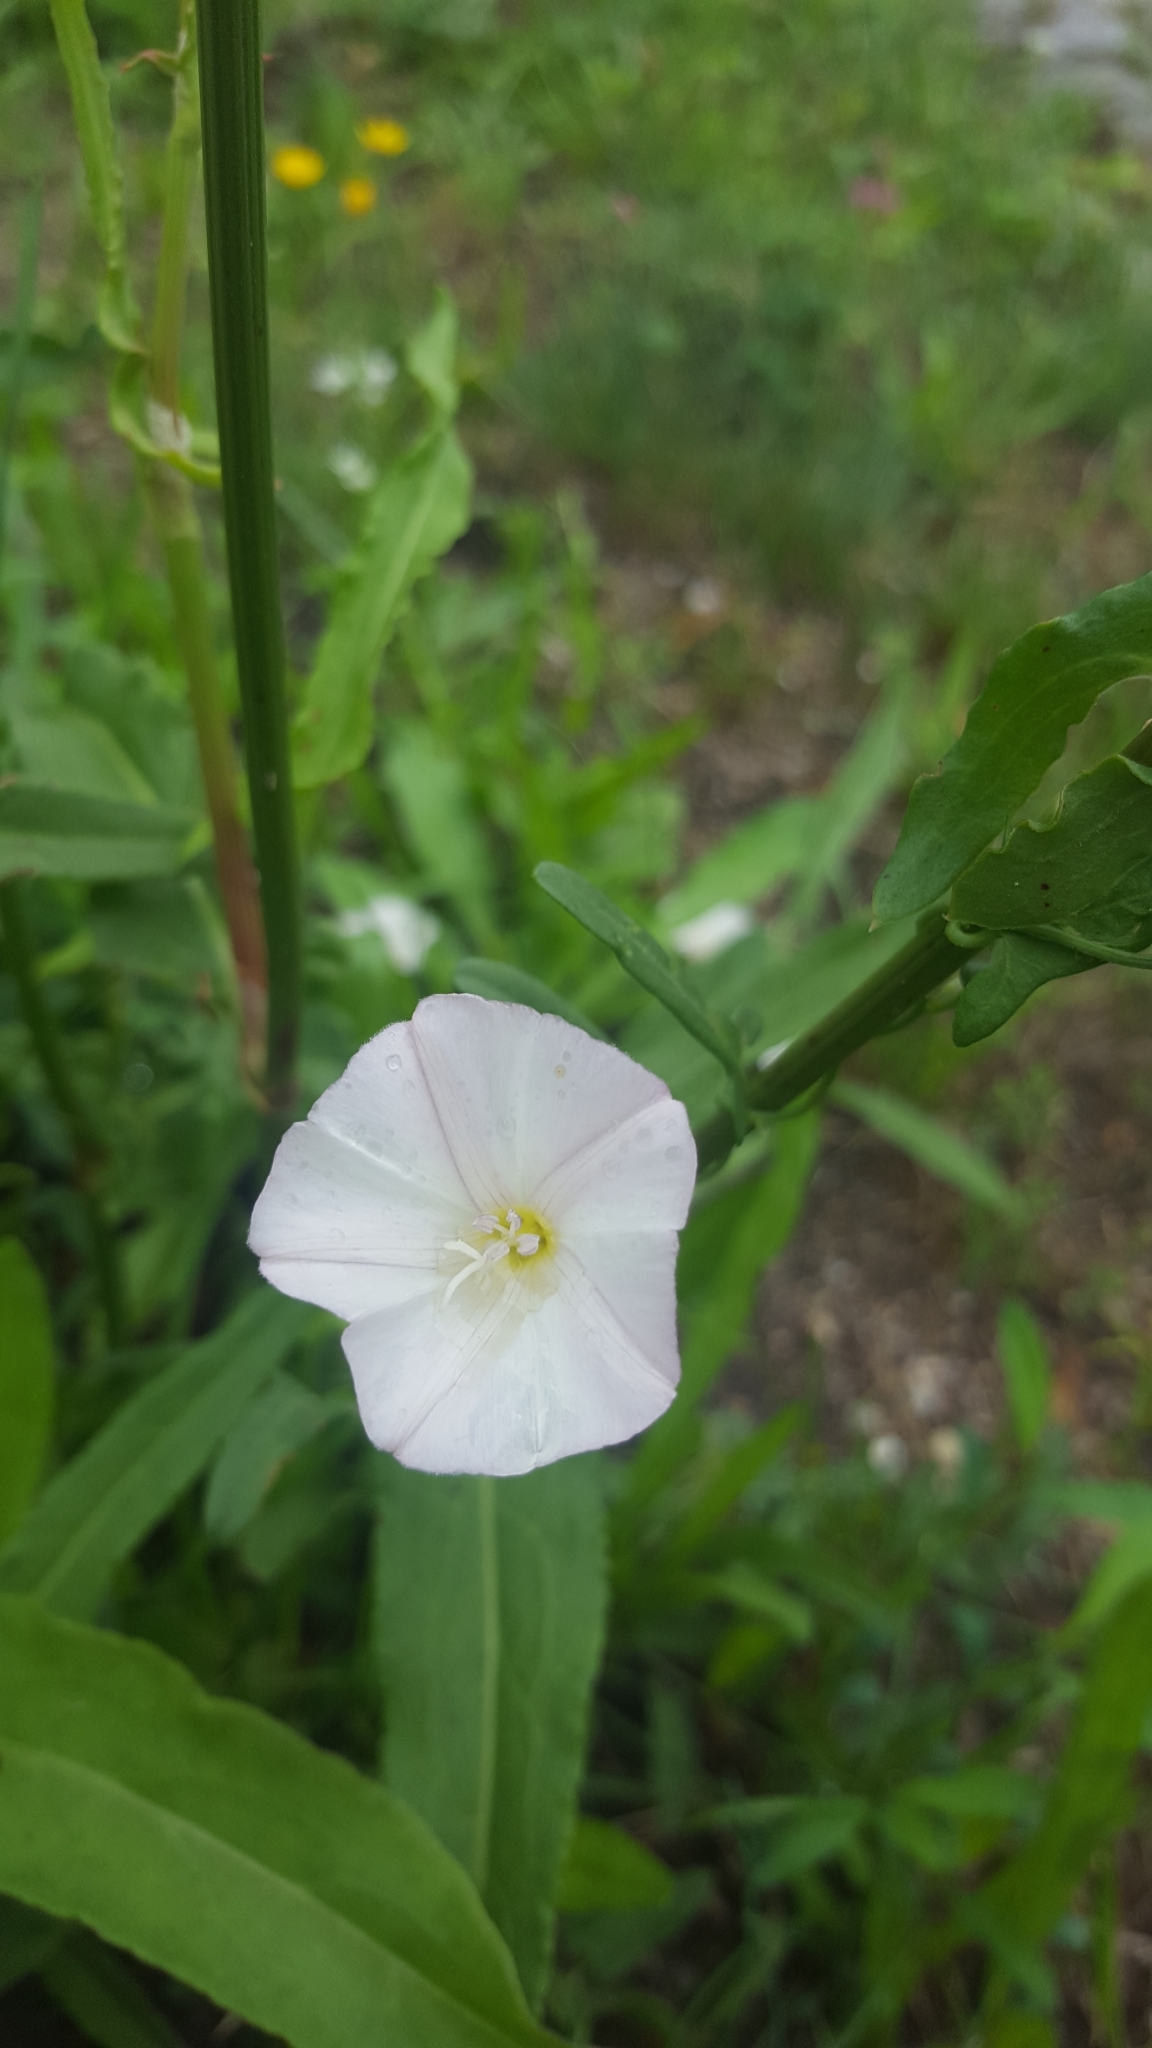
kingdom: Plantae
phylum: Tracheophyta
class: Magnoliopsida
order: Solanales
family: Convolvulaceae
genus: Convolvulus
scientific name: Convolvulus arvensis
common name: Field bindweed
